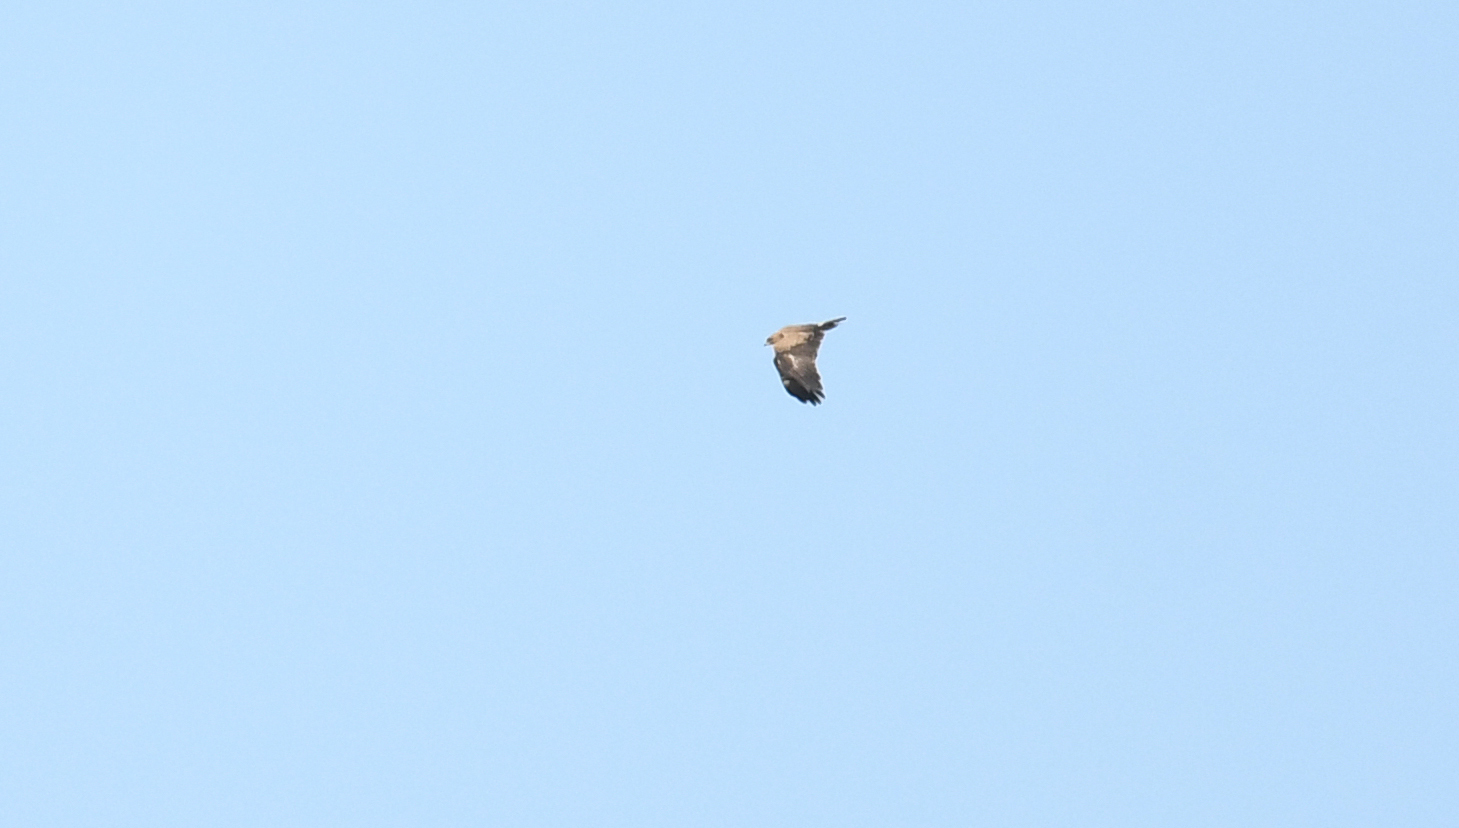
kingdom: Animalia
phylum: Chordata
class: Aves
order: Accipitriformes
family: Accipitridae
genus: Aquila
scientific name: Aquila pomarina
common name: Lesser spotted eagle
